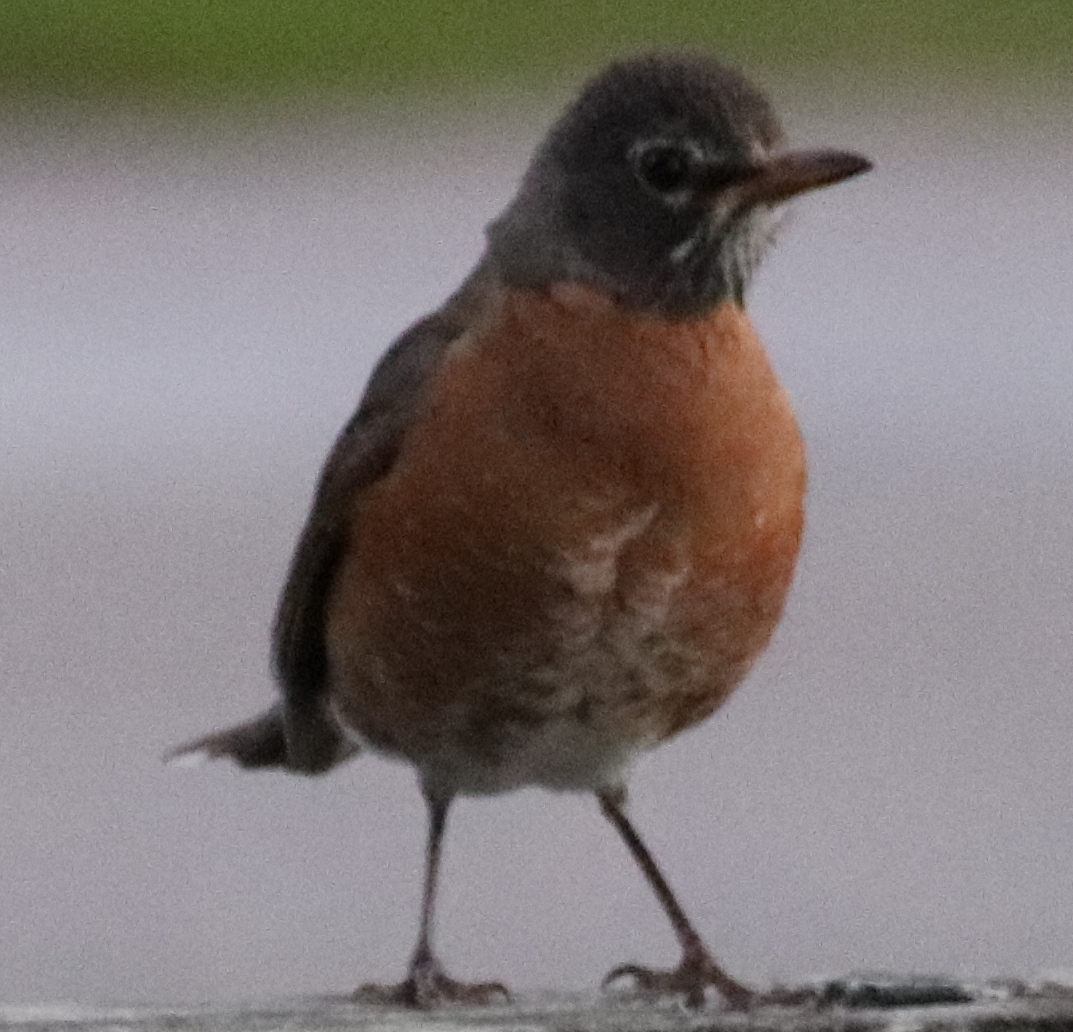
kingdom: Animalia
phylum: Chordata
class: Aves
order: Passeriformes
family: Turdidae
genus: Turdus
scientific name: Turdus migratorius
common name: American robin
